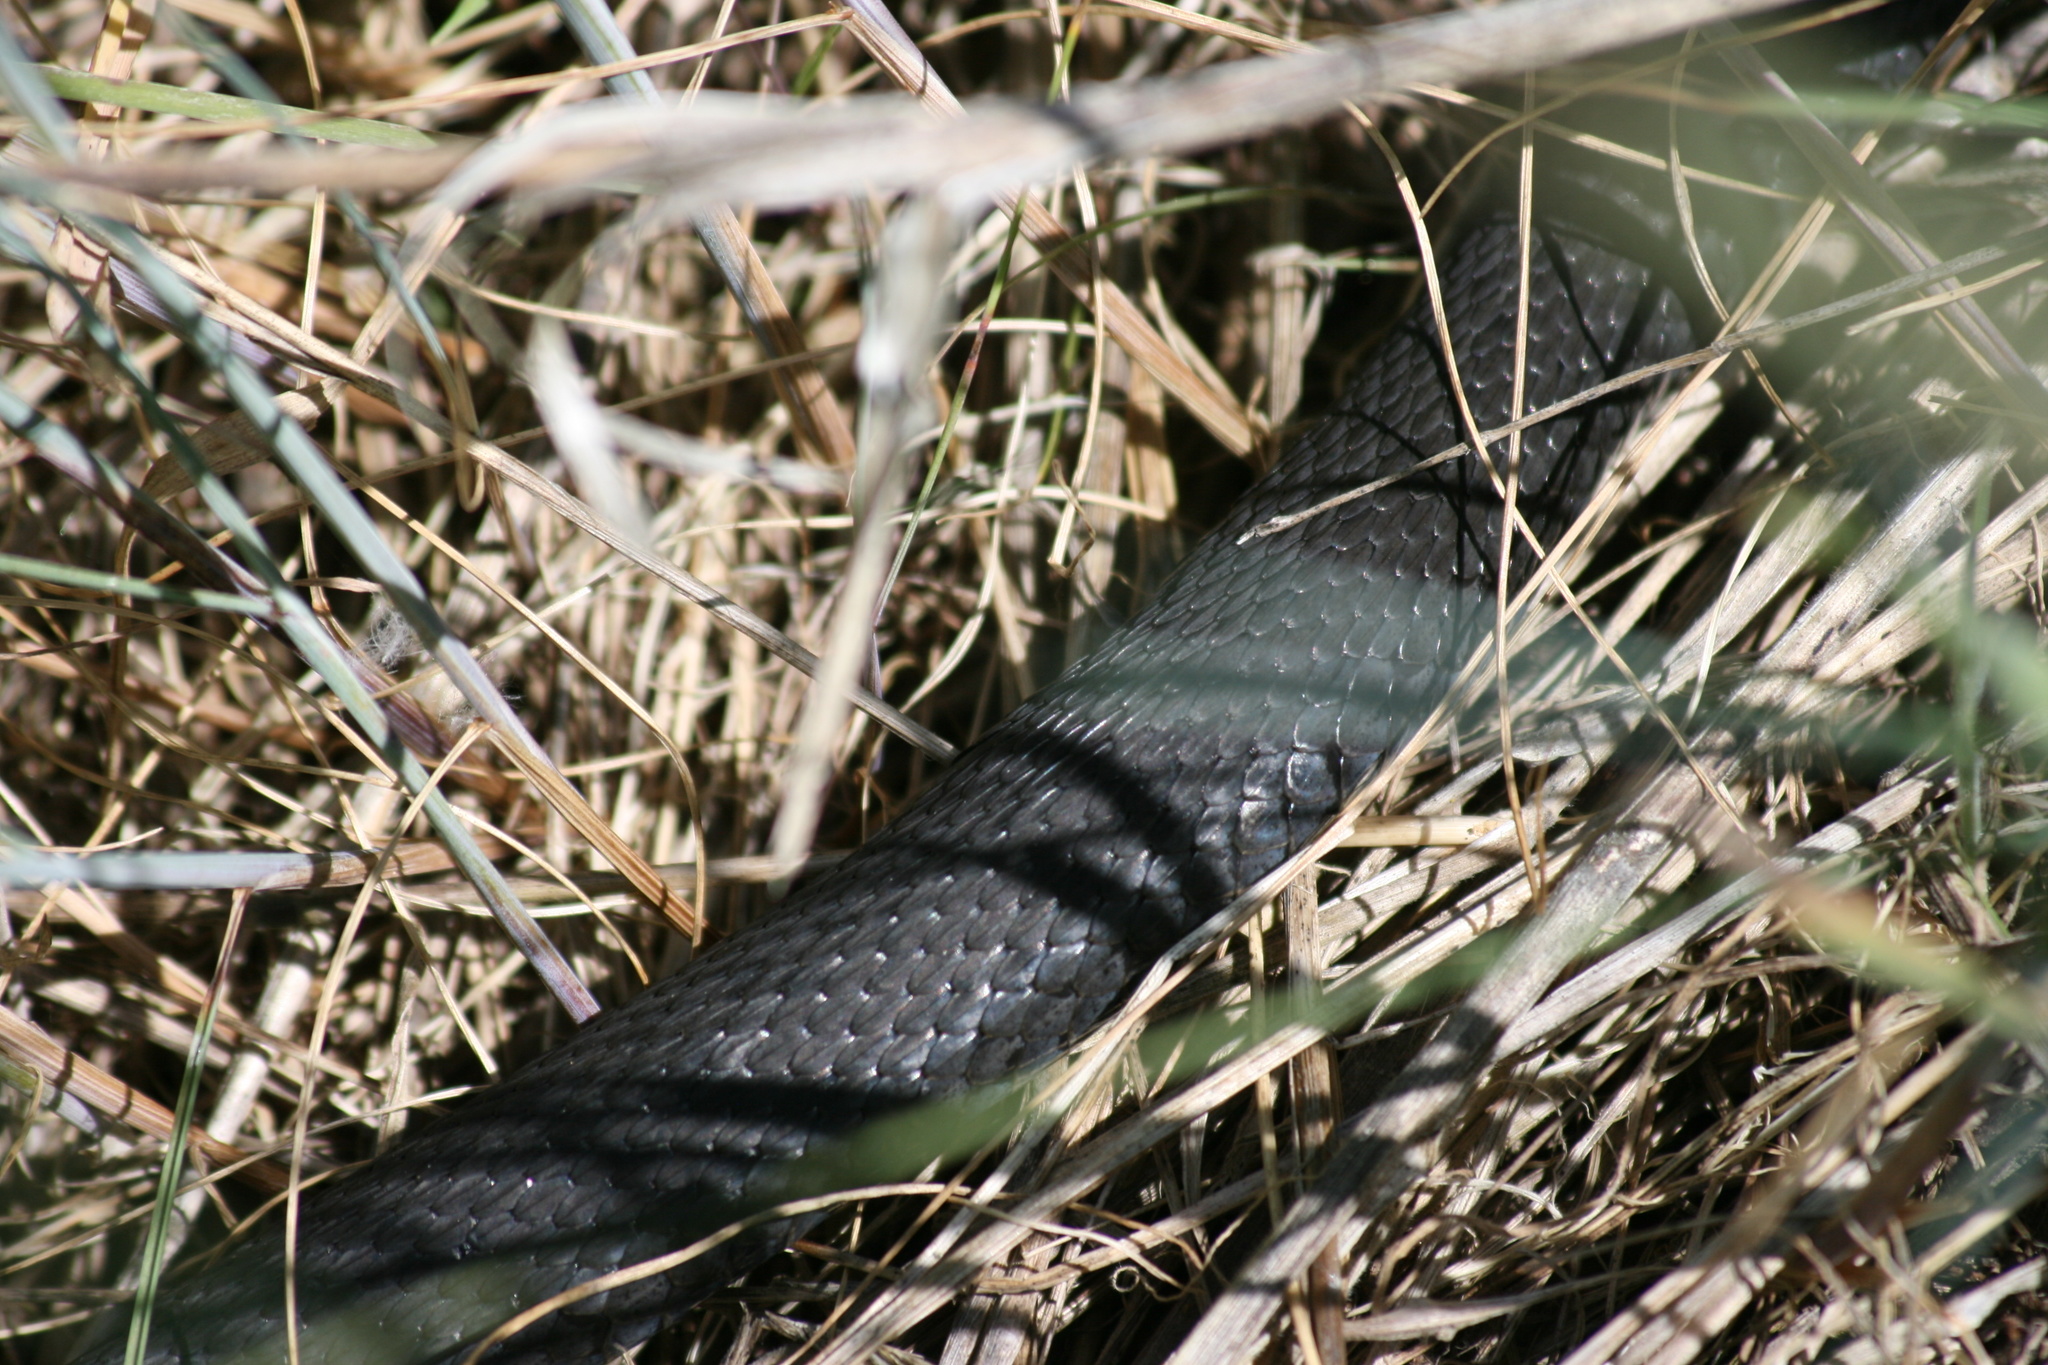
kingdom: Animalia
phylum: Chordata
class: Squamata
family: Colubridae
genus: Thamnophis
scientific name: Thamnophis
